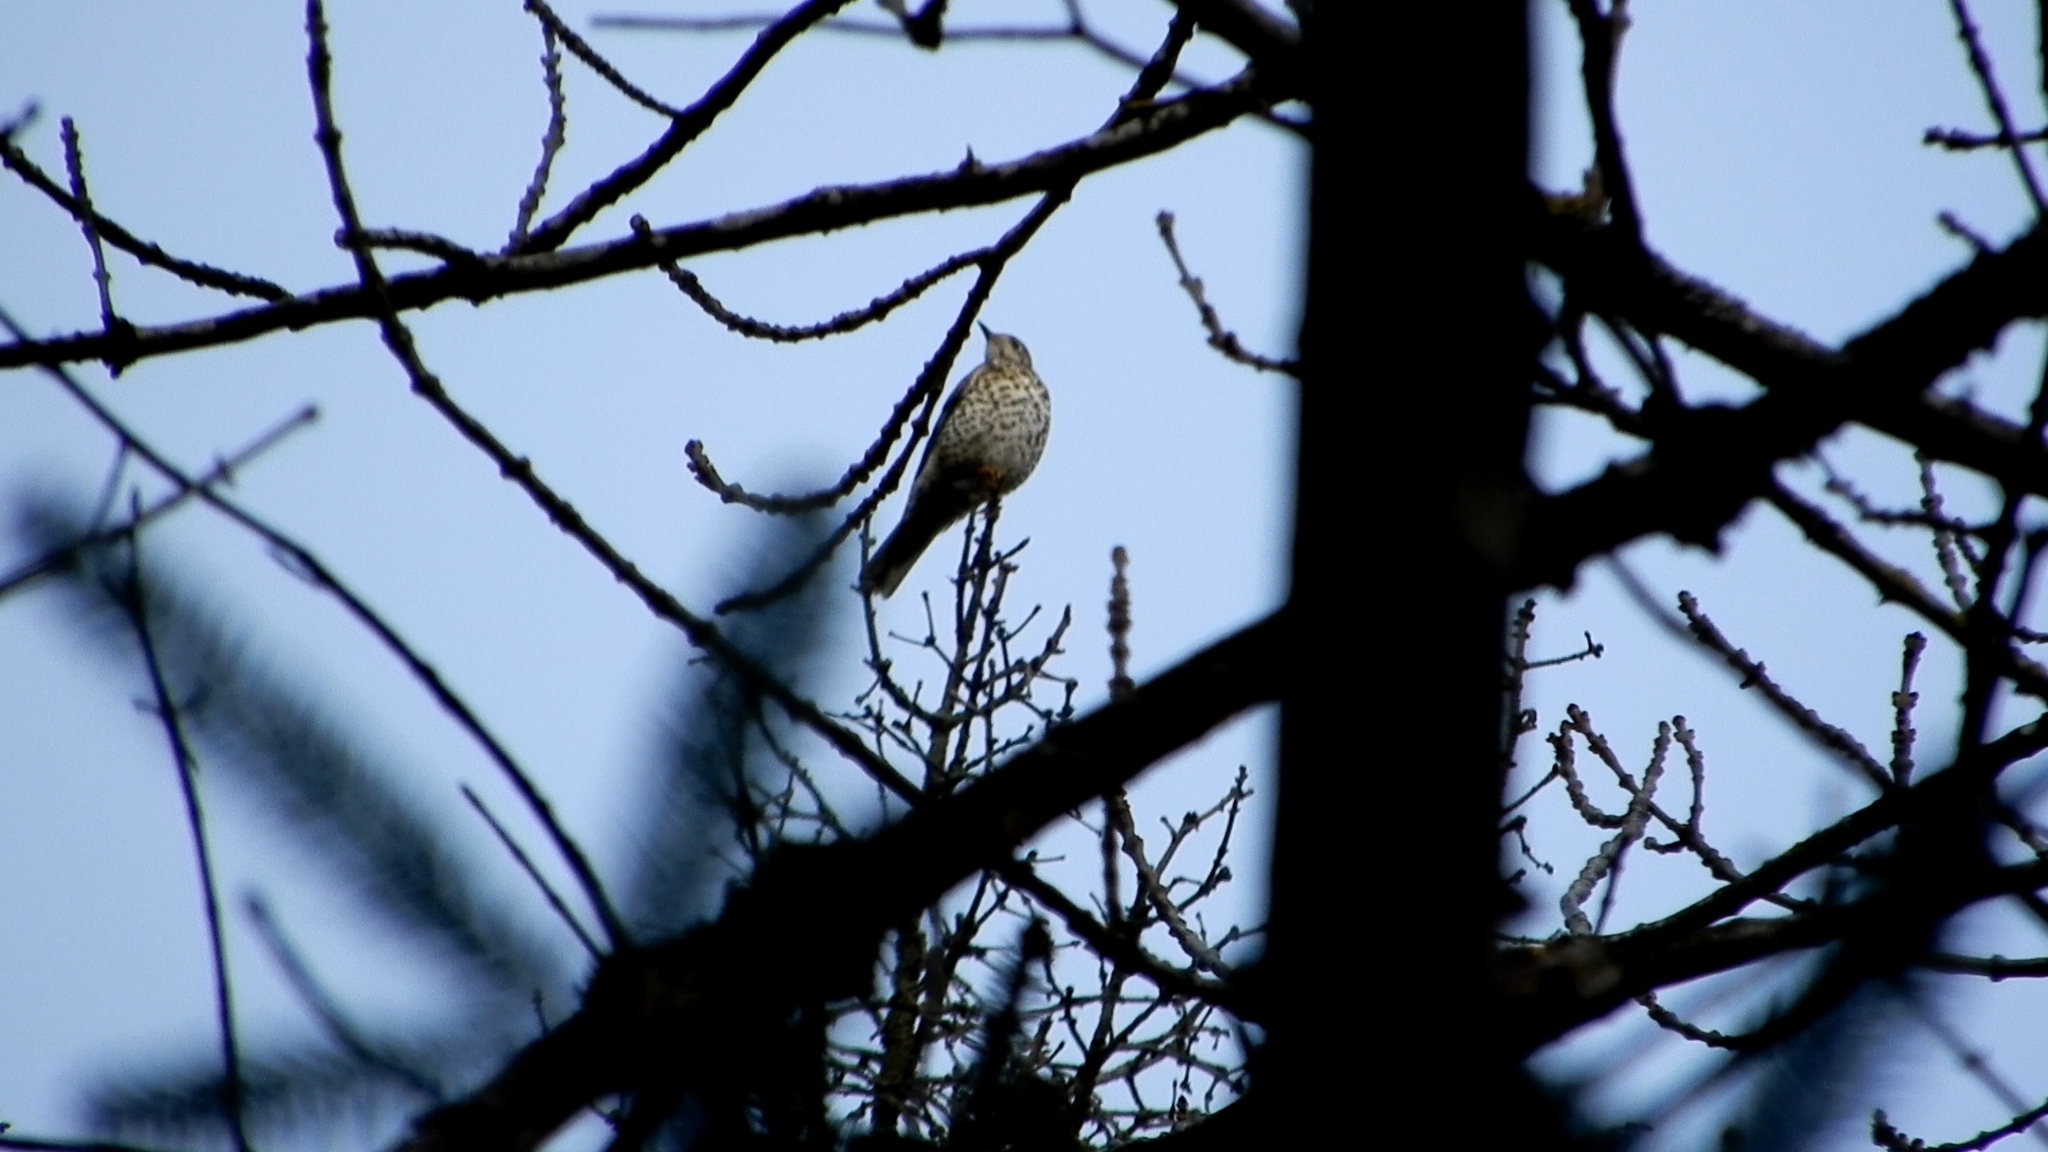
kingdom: Animalia
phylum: Chordata
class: Aves
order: Passeriformes
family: Turdidae
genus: Turdus
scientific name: Turdus viscivorus
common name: Mistle thrush
